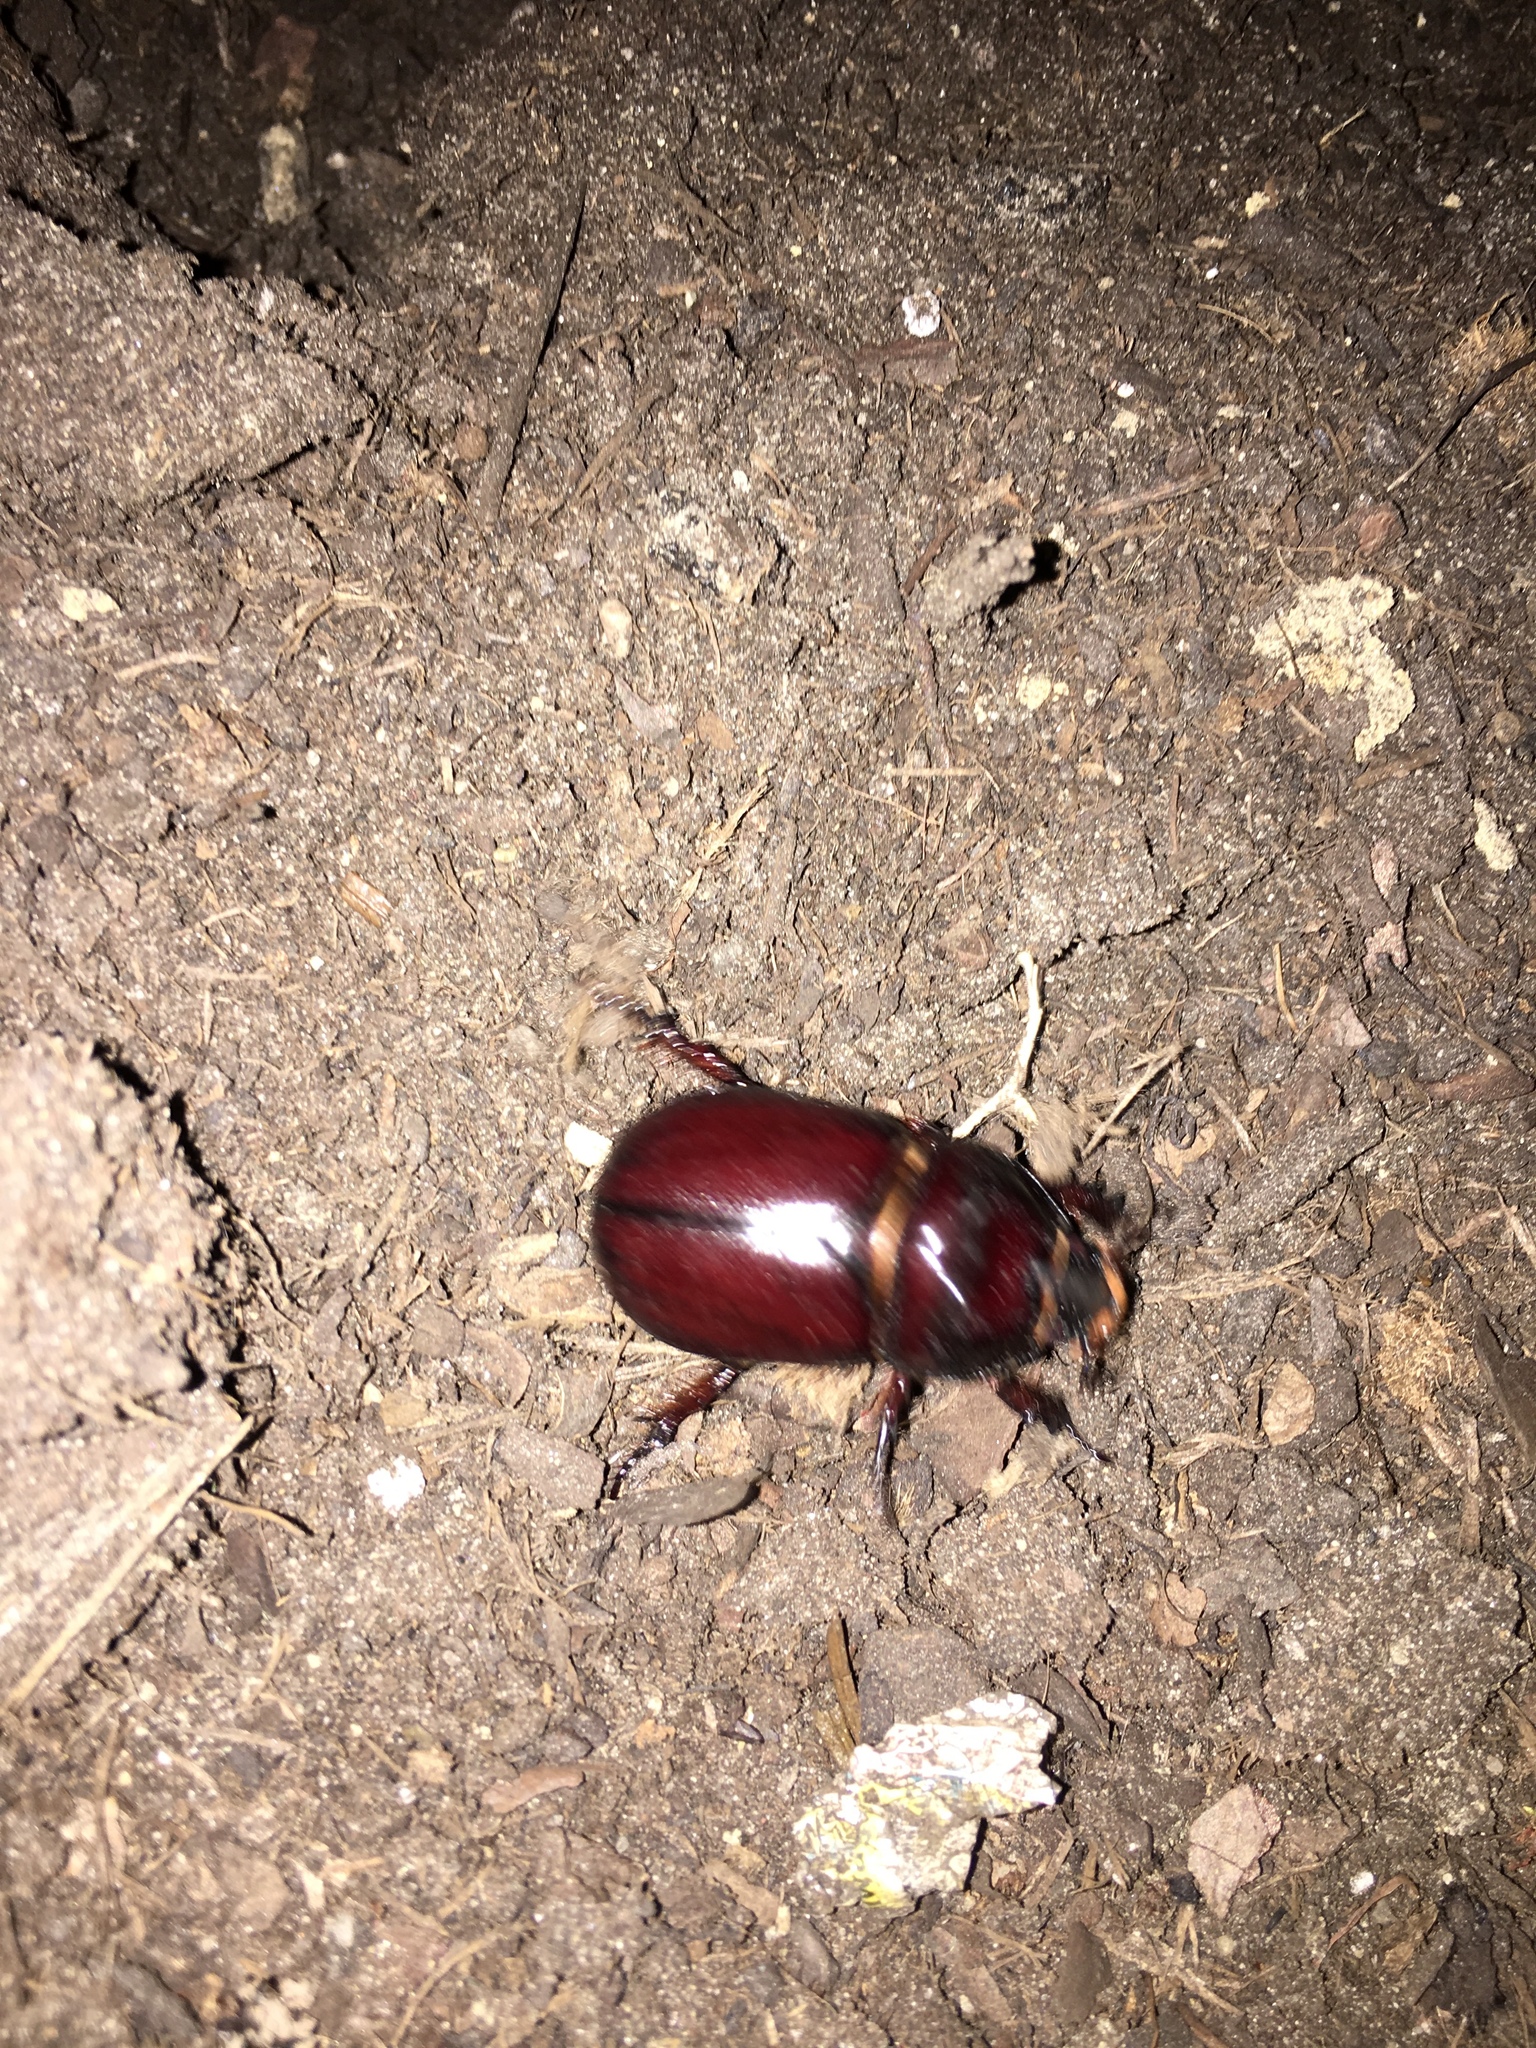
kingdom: Animalia
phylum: Arthropoda
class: Insecta
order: Coleoptera
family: Scarabaeidae
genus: Oryctes
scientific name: Oryctes nasicornis
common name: European rhinoceros beetle
